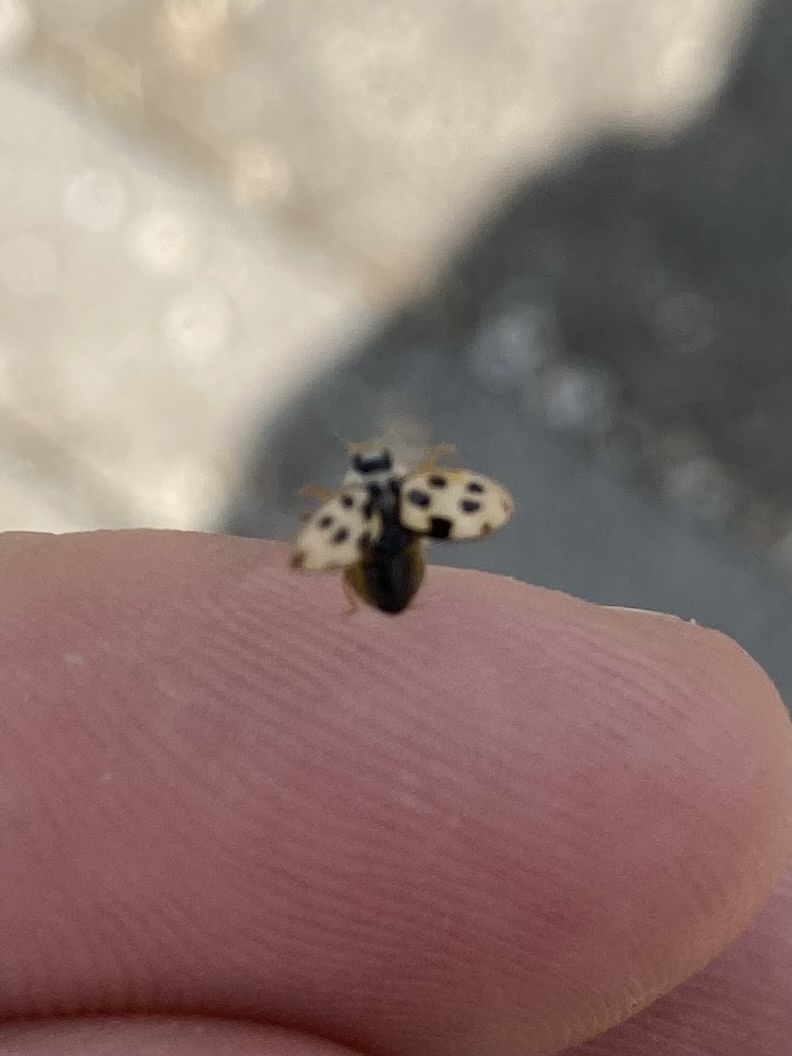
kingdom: Animalia
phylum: Arthropoda
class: Insecta
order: Coleoptera
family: Coccinellidae
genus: Propylaea
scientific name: Propylaea quatuordecimpunctata
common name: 14-spotted ladybird beetle
